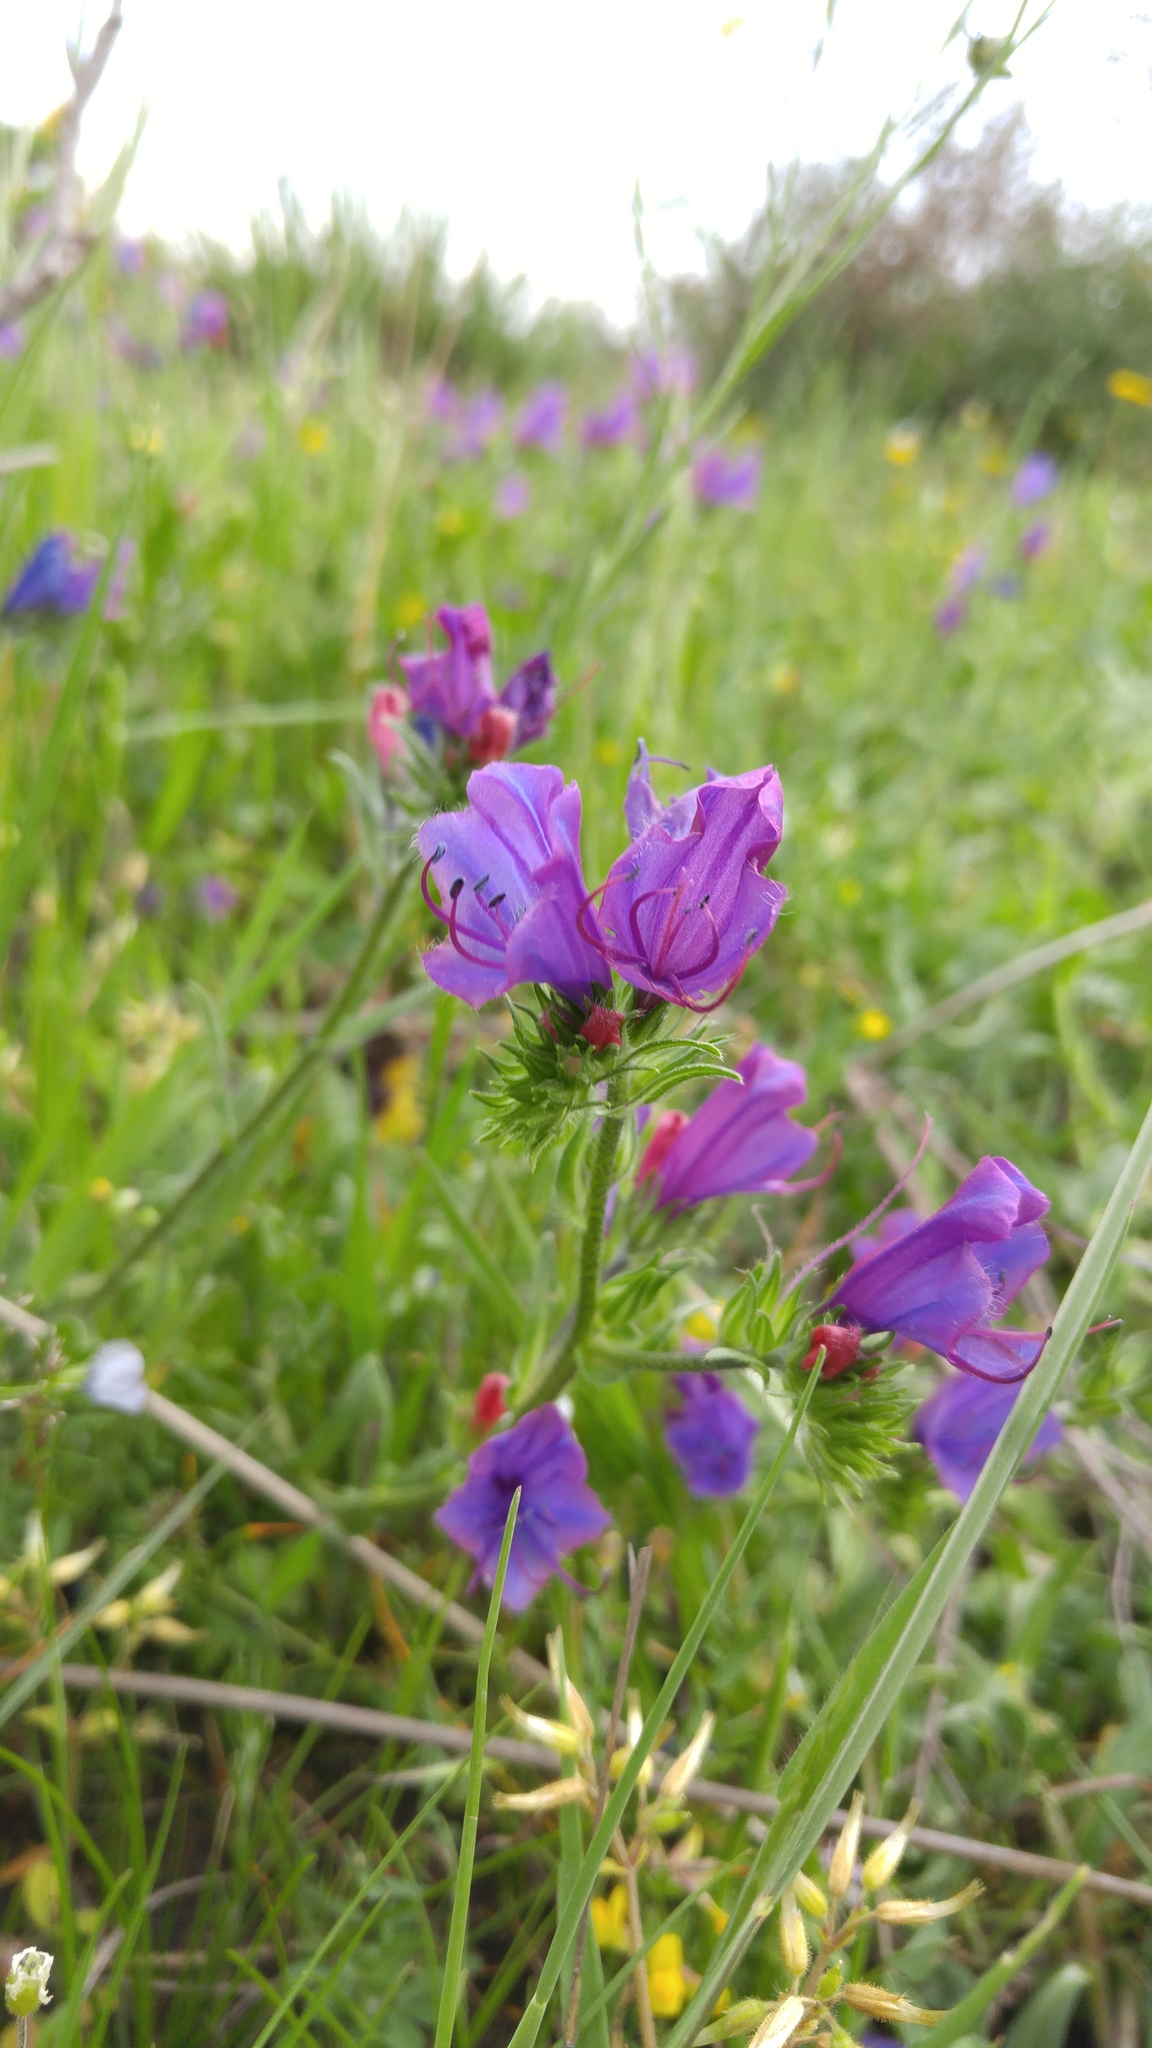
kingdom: Plantae
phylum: Tracheophyta
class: Magnoliopsida
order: Boraginales
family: Boraginaceae
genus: Echium
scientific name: Echium plantagineum
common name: Purple viper's-bugloss
